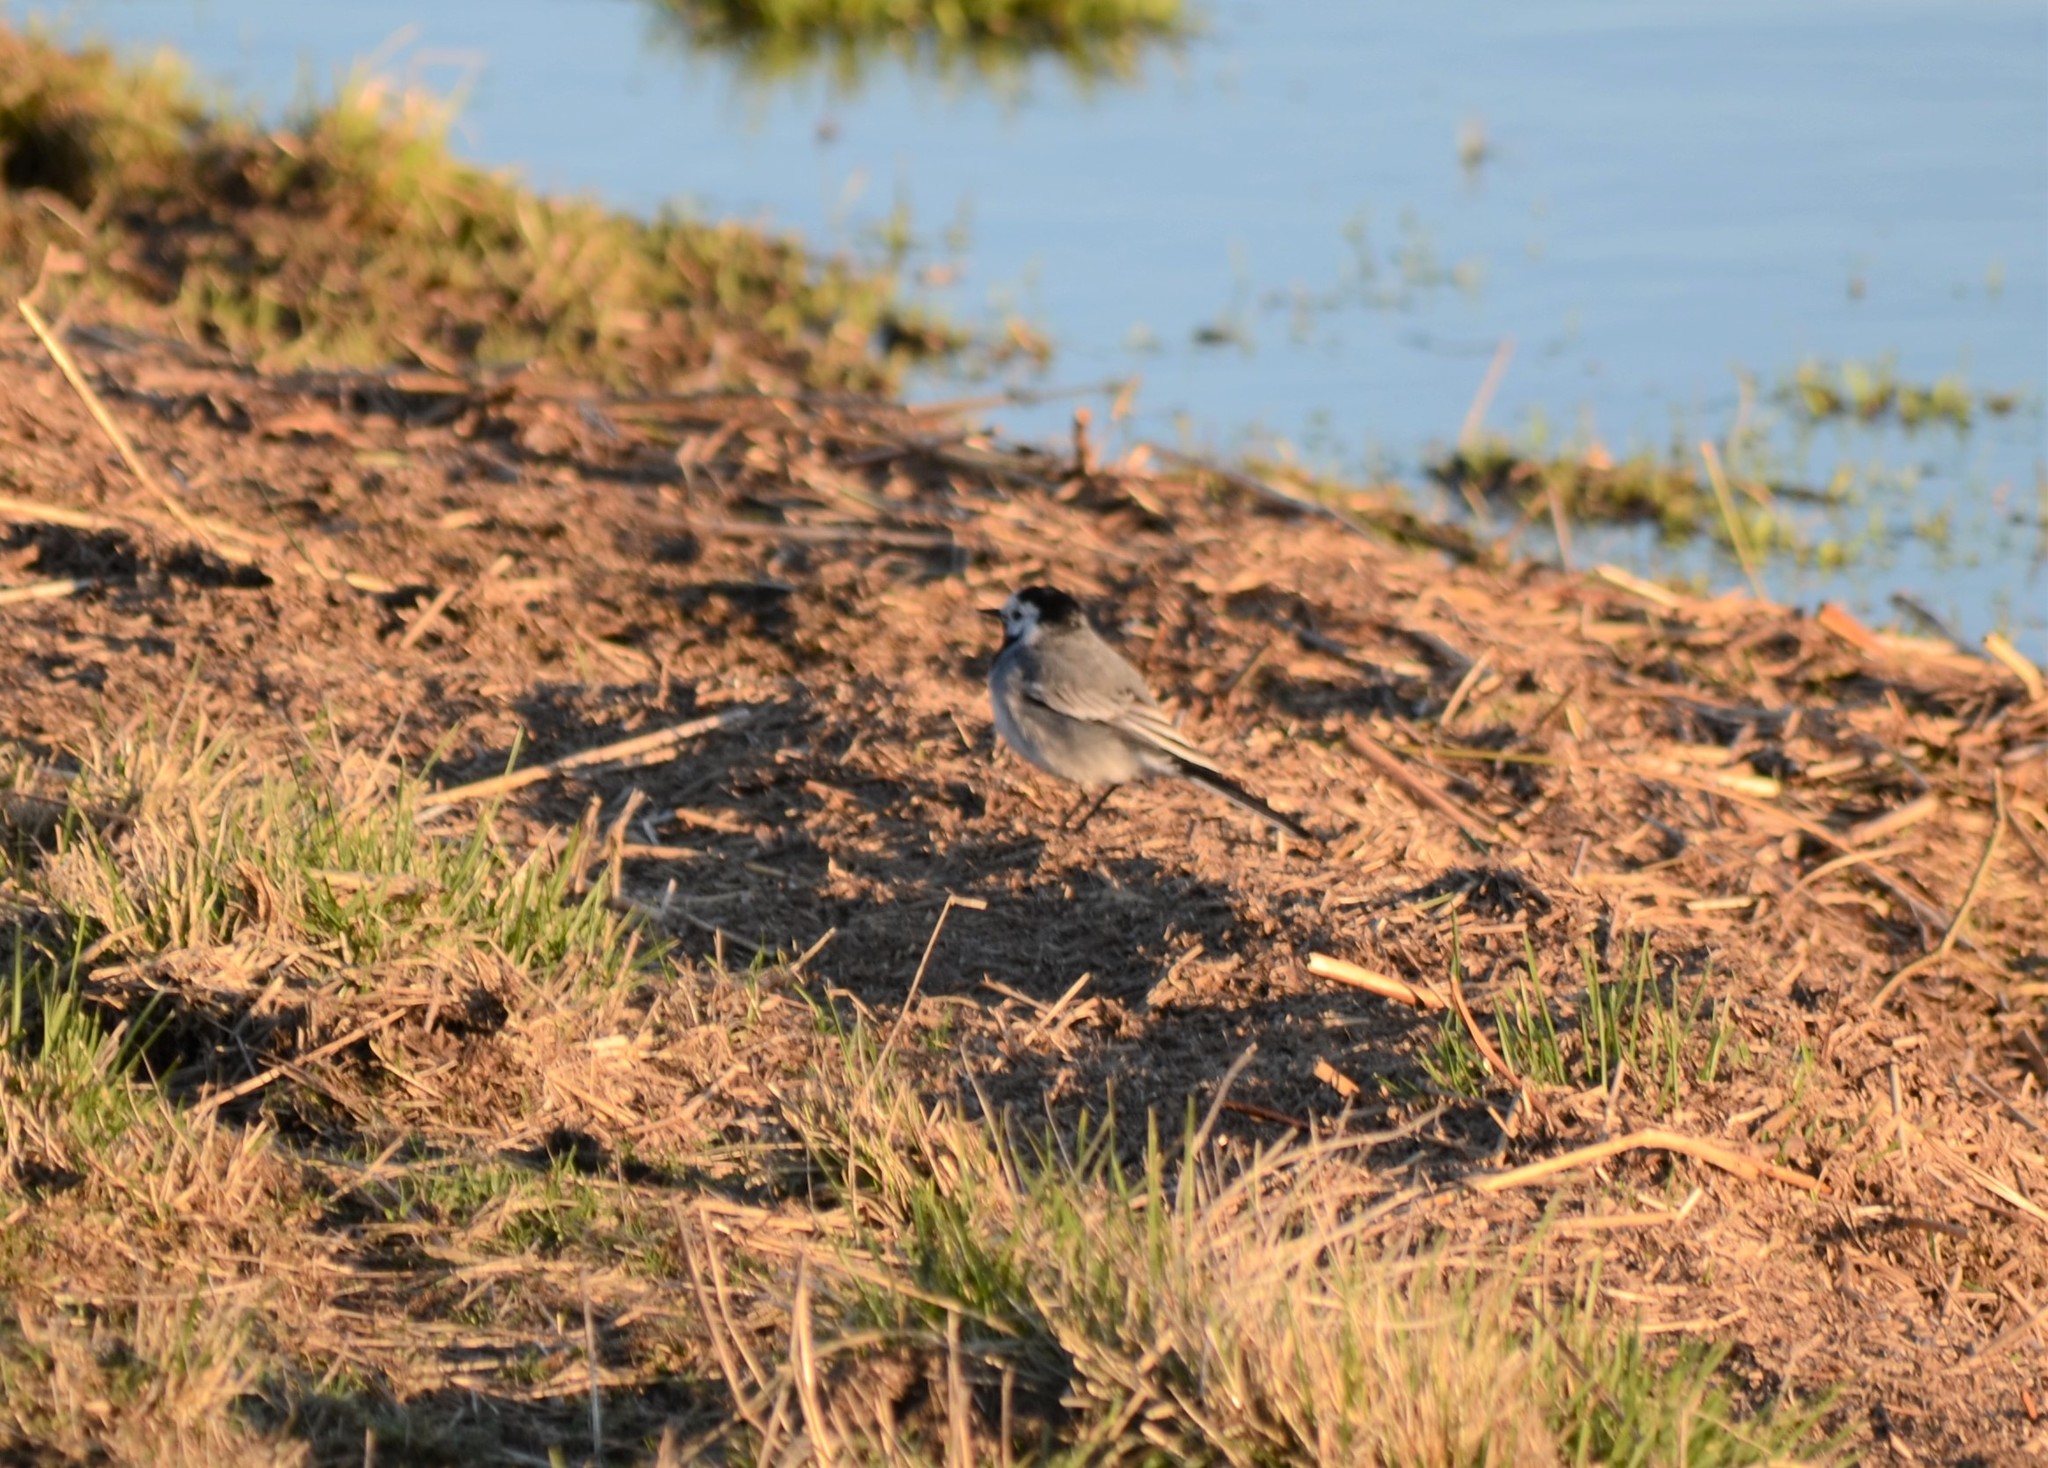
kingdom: Animalia
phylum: Chordata
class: Aves
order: Passeriformes
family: Motacillidae
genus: Motacilla
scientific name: Motacilla alba
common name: White wagtail
